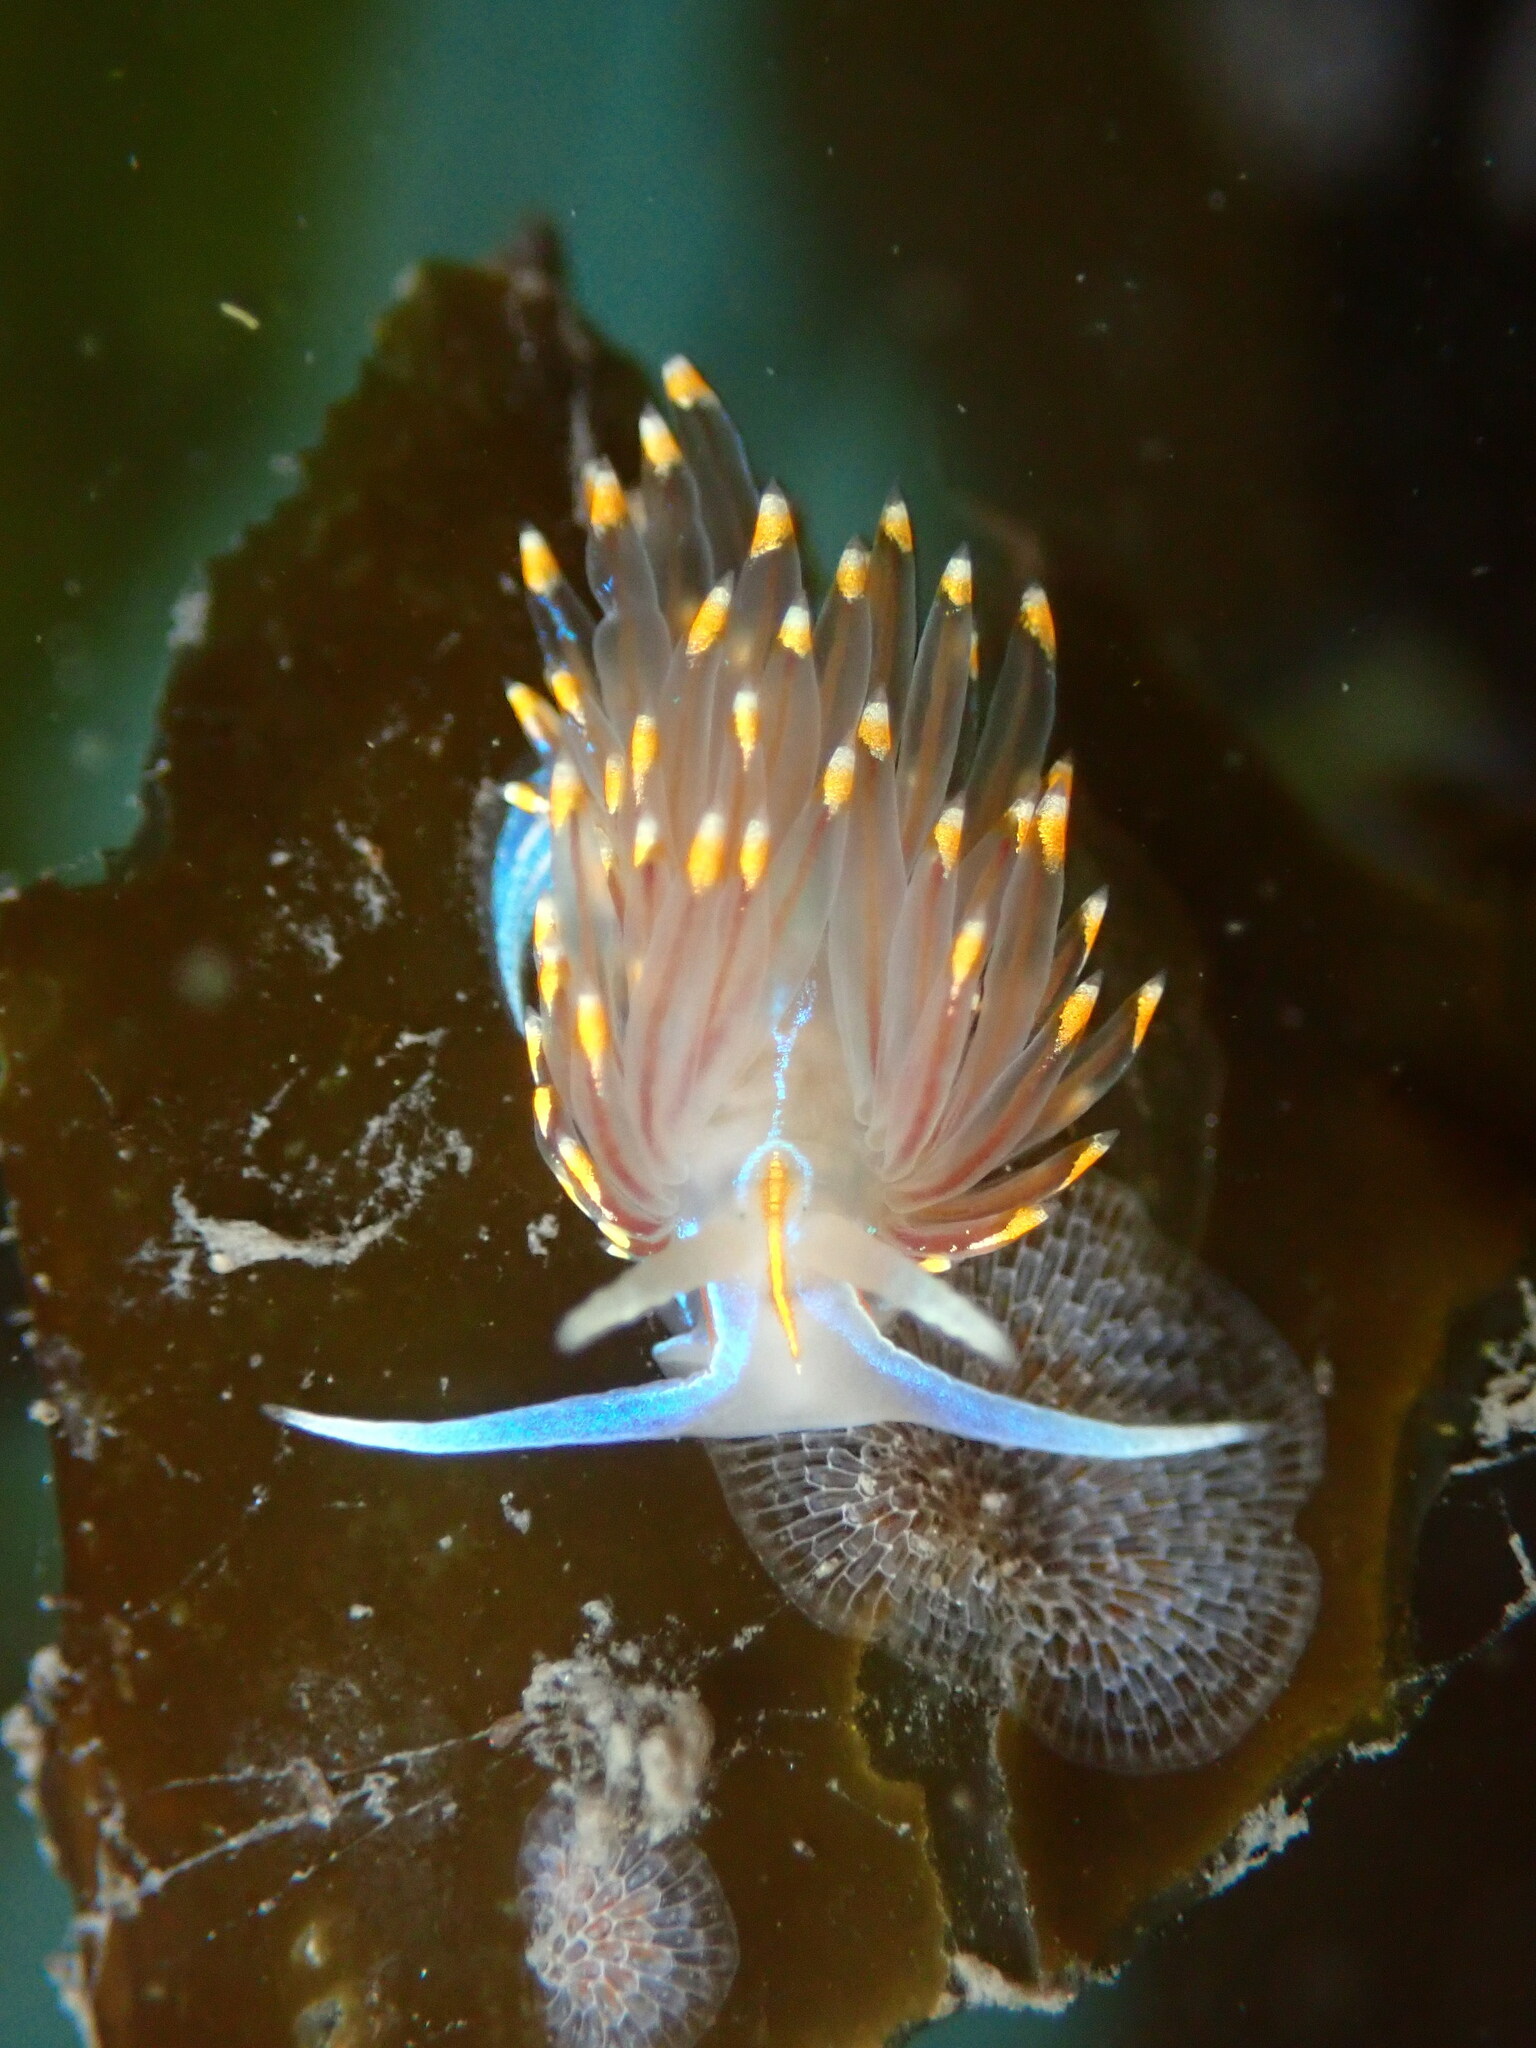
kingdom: Animalia
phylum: Mollusca
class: Gastropoda
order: Nudibranchia
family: Myrrhinidae
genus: Hermissenda
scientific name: Hermissenda opalescens
